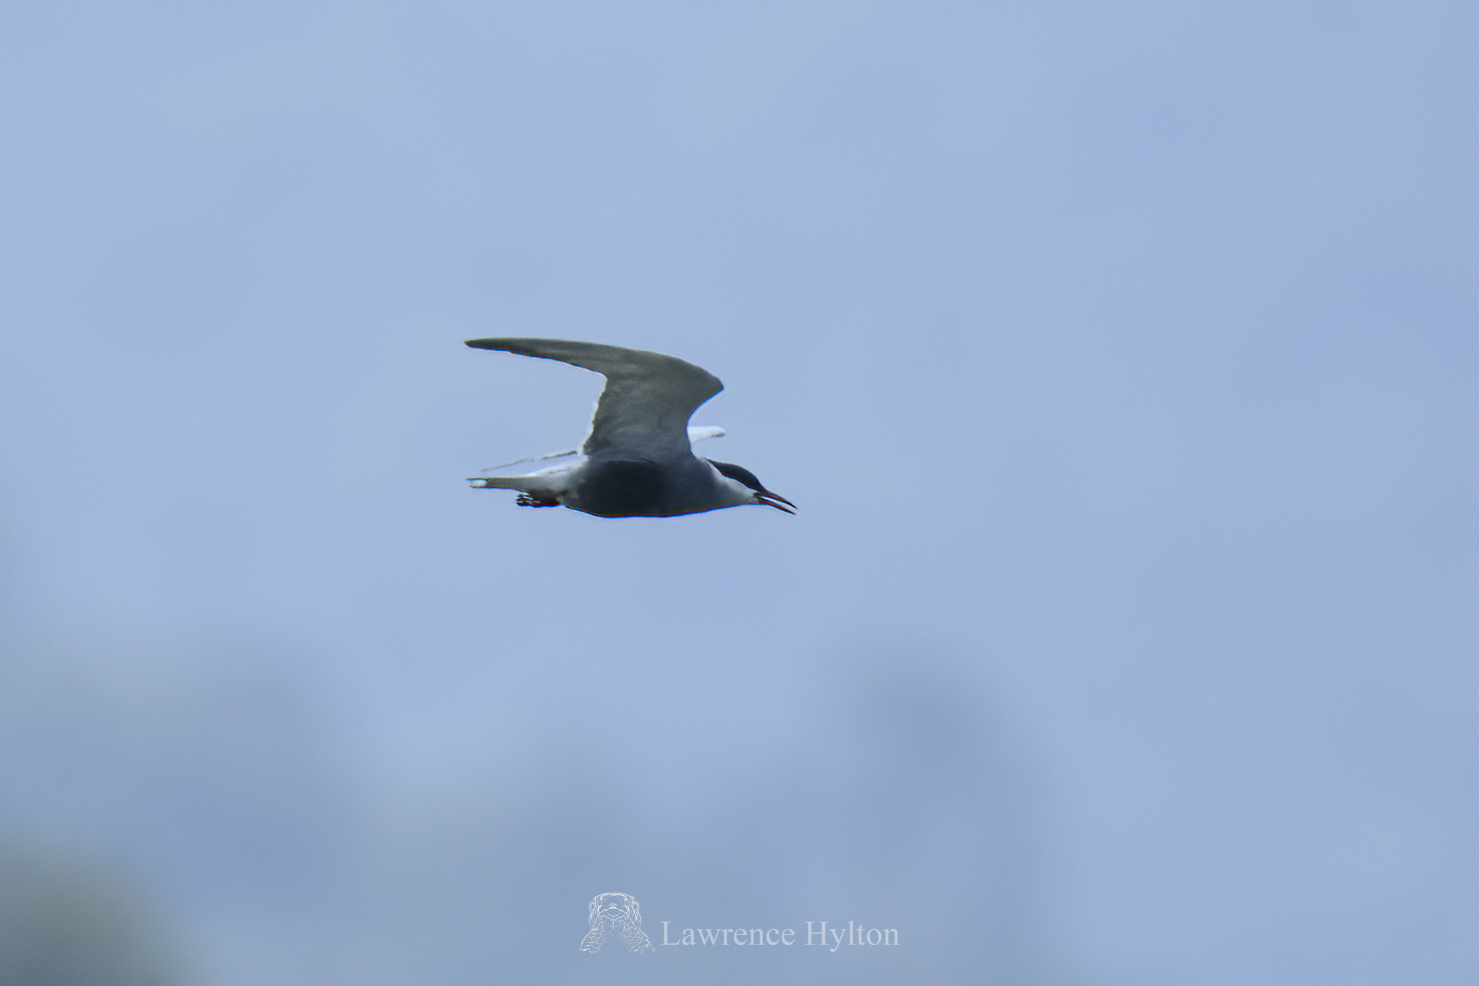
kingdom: Animalia
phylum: Chordata
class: Aves
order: Charadriiformes
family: Laridae
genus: Chlidonias
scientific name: Chlidonias hybrida
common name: Whiskered tern
